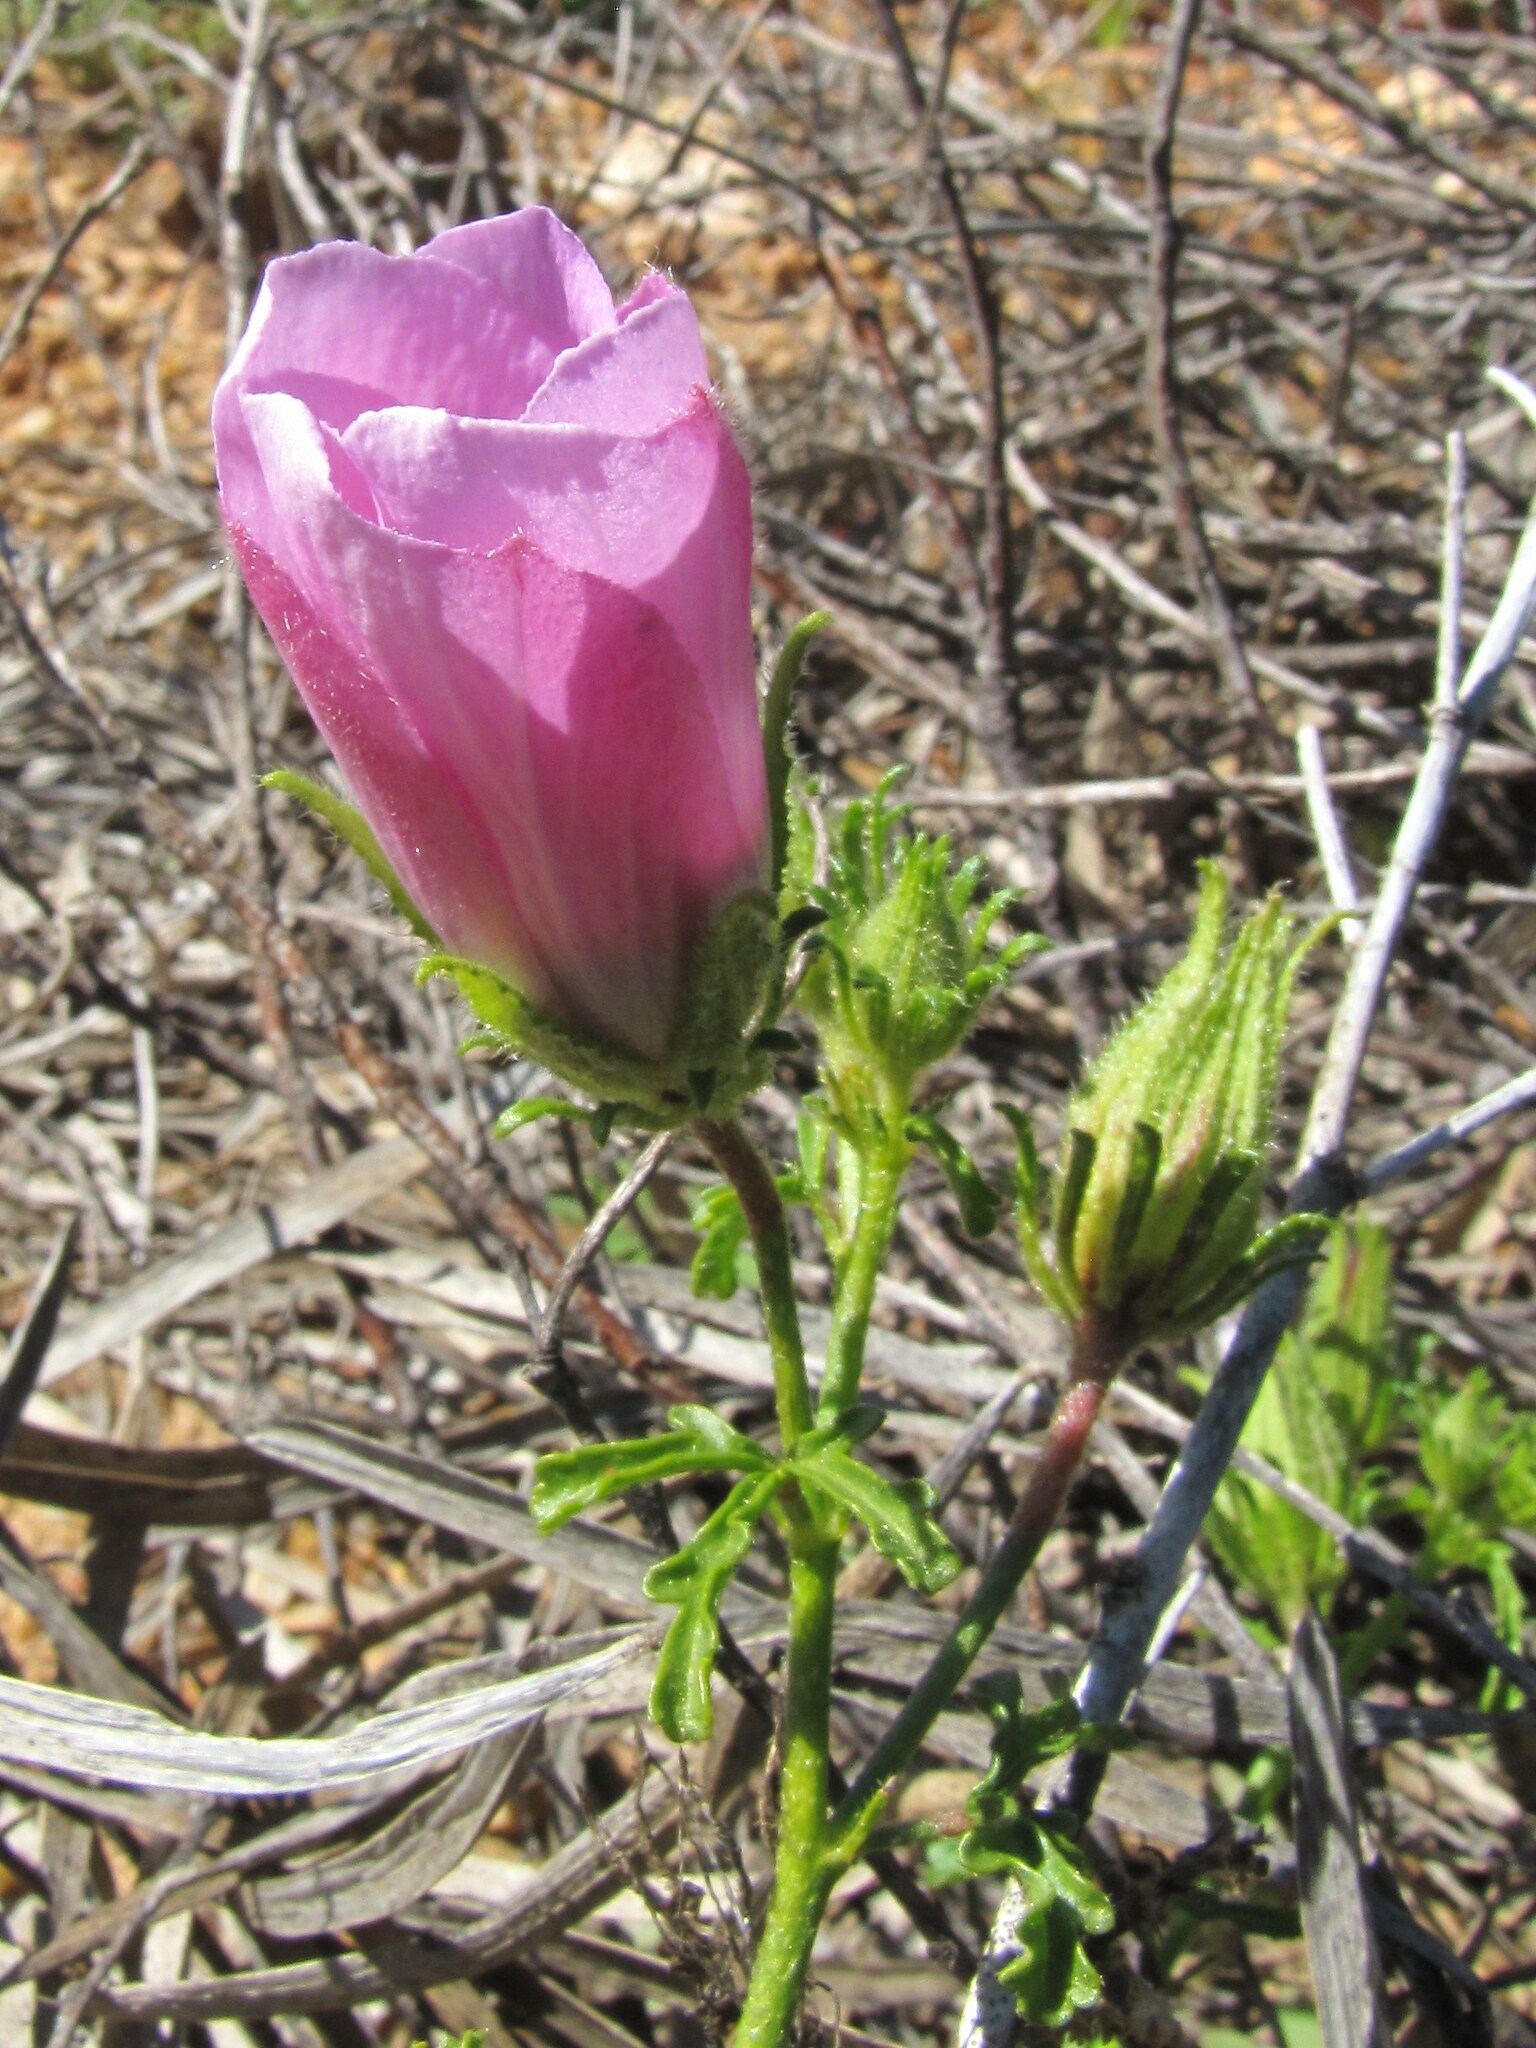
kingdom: Plantae
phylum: Tracheophyta
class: Magnoliopsida
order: Malvales
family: Malvaceae
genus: Hibiscus
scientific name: Hibiscus drummondii
